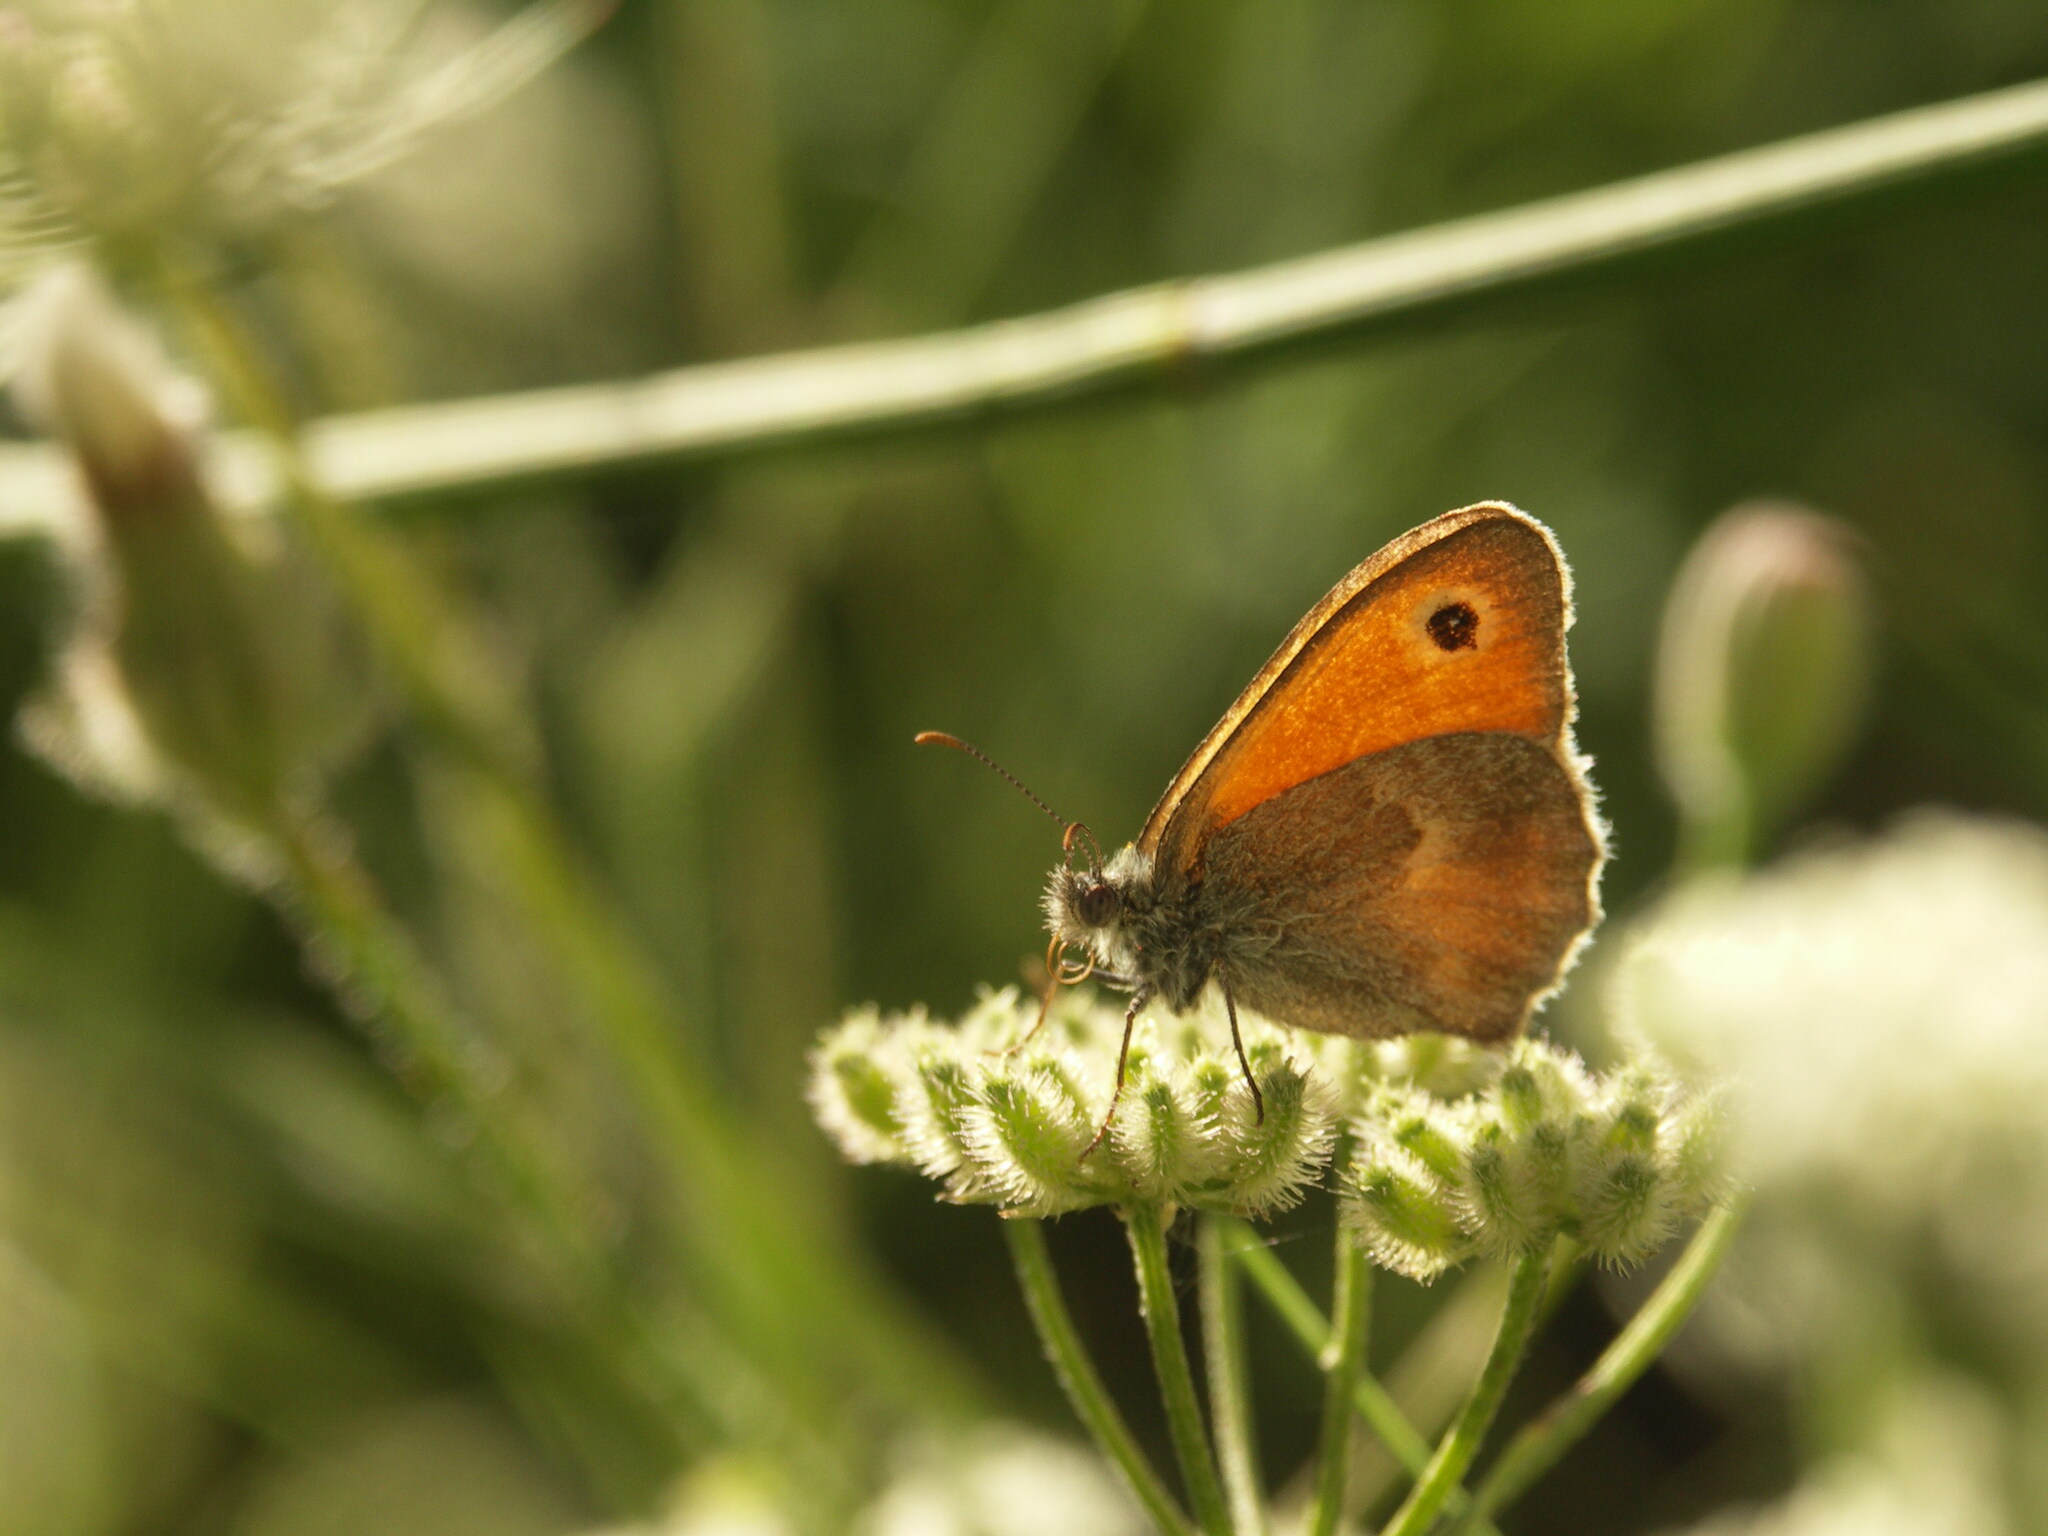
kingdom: Animalia
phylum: Arthropoda
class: Insecta
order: Lepidoptera
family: Nymphalidae
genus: Coenonympha
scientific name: Coenonympha pamphilus
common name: Small heath
